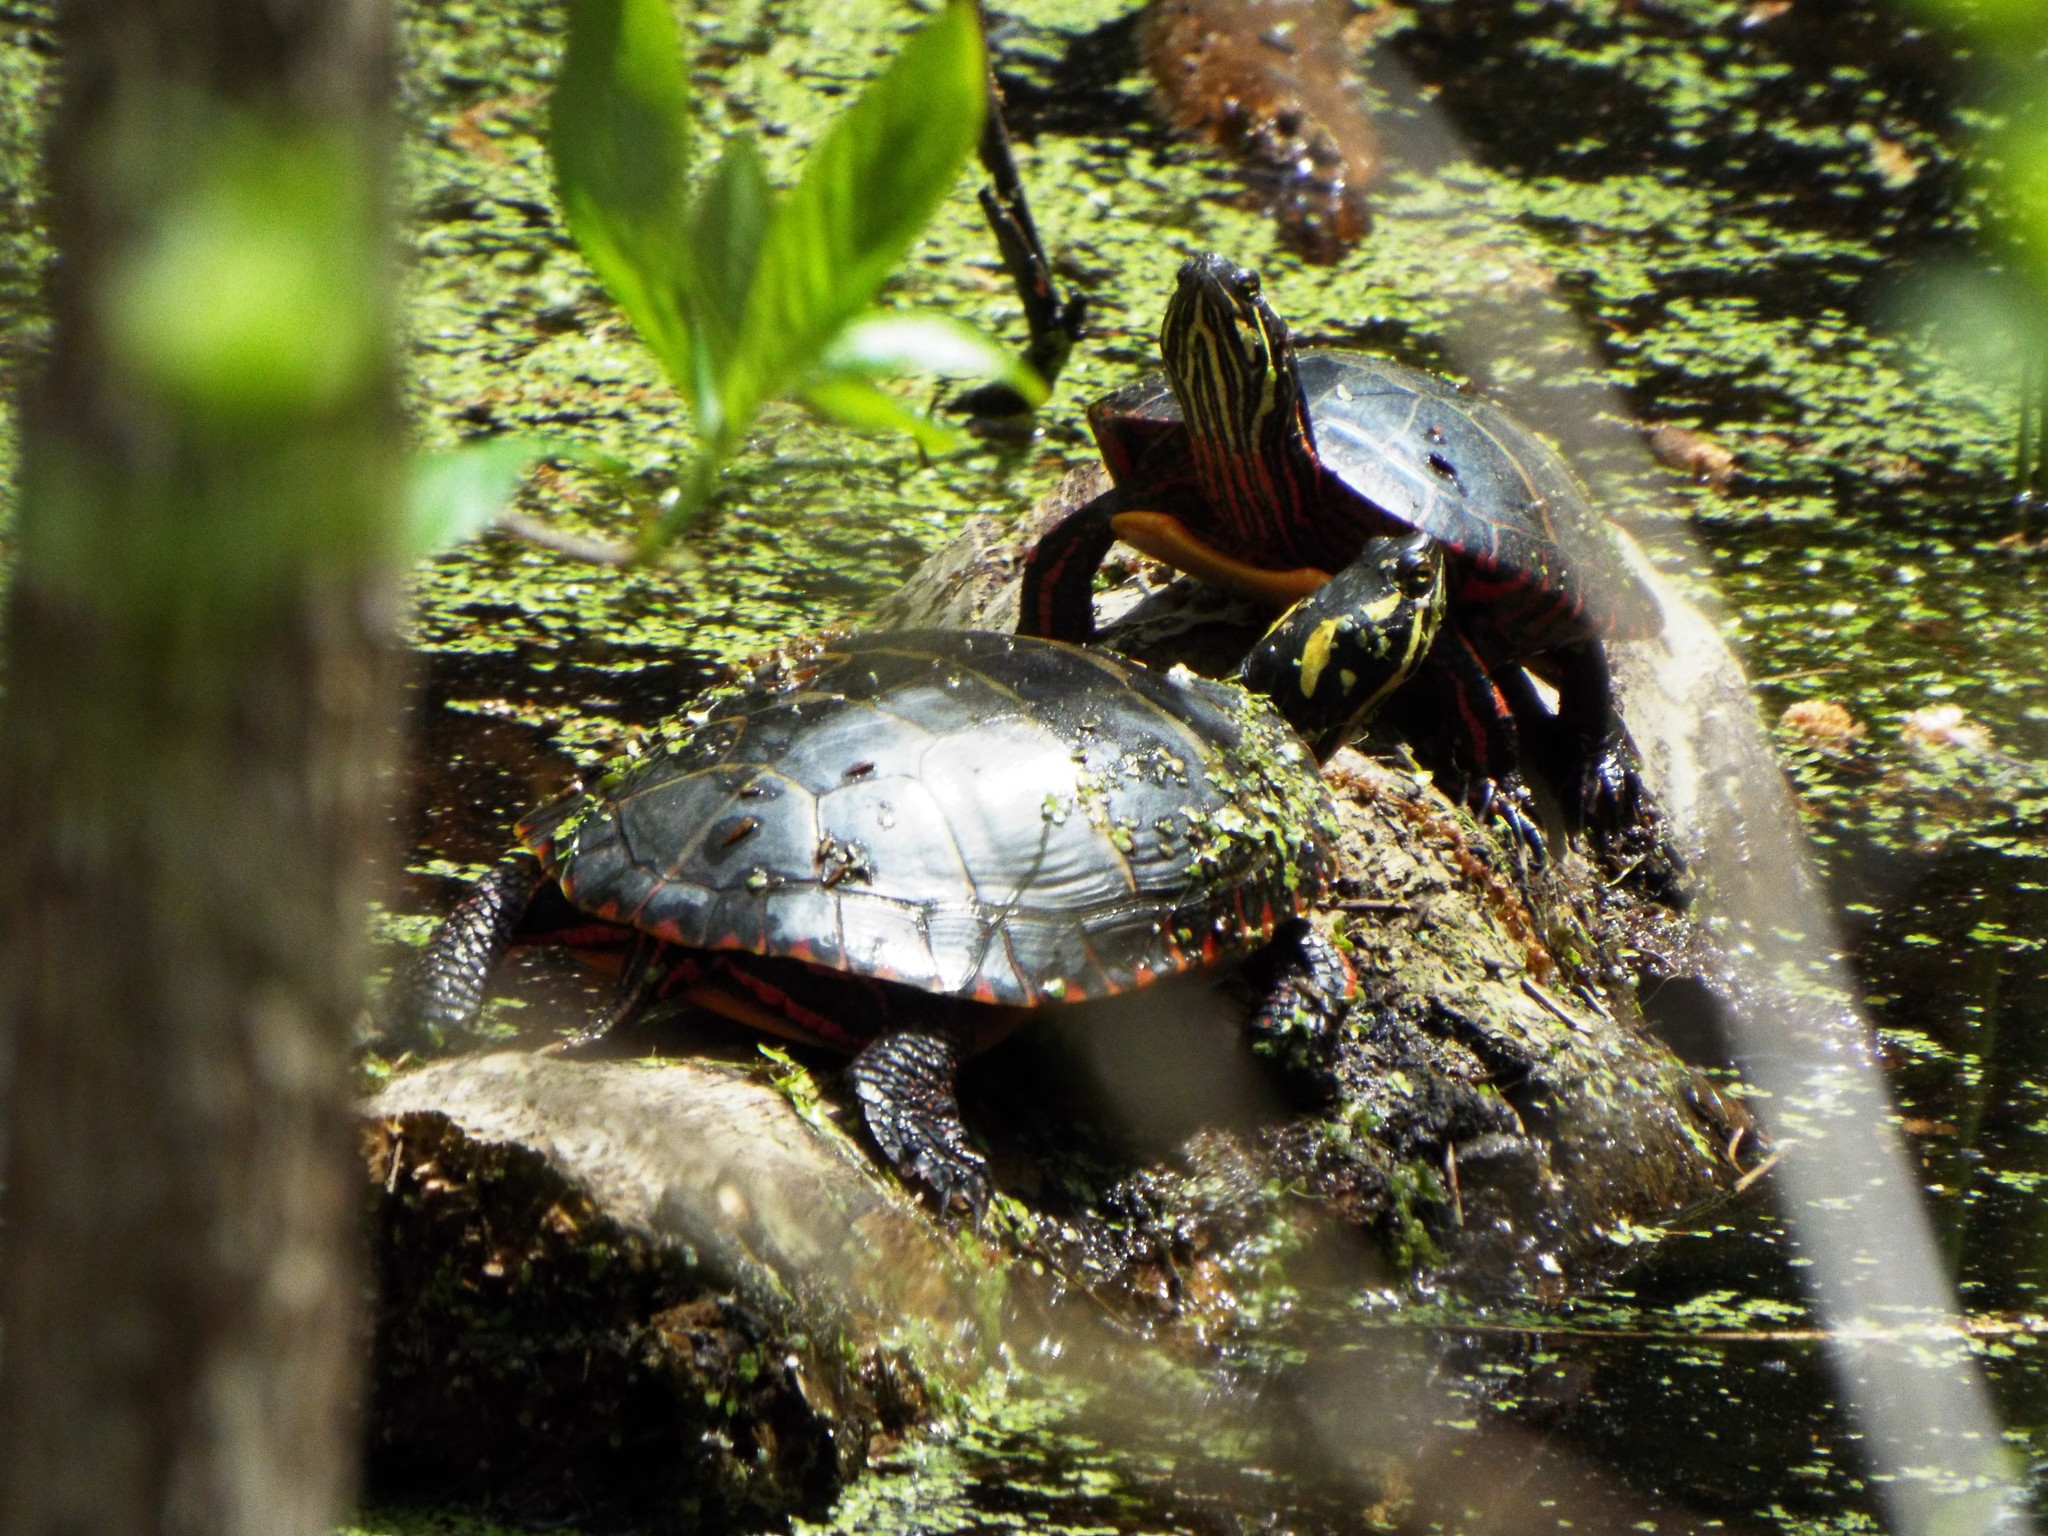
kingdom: Animalia
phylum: Chordata
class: Testudines
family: Emydidae
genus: Chrysemys
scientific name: Chrysemys picta
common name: Painted turtle
